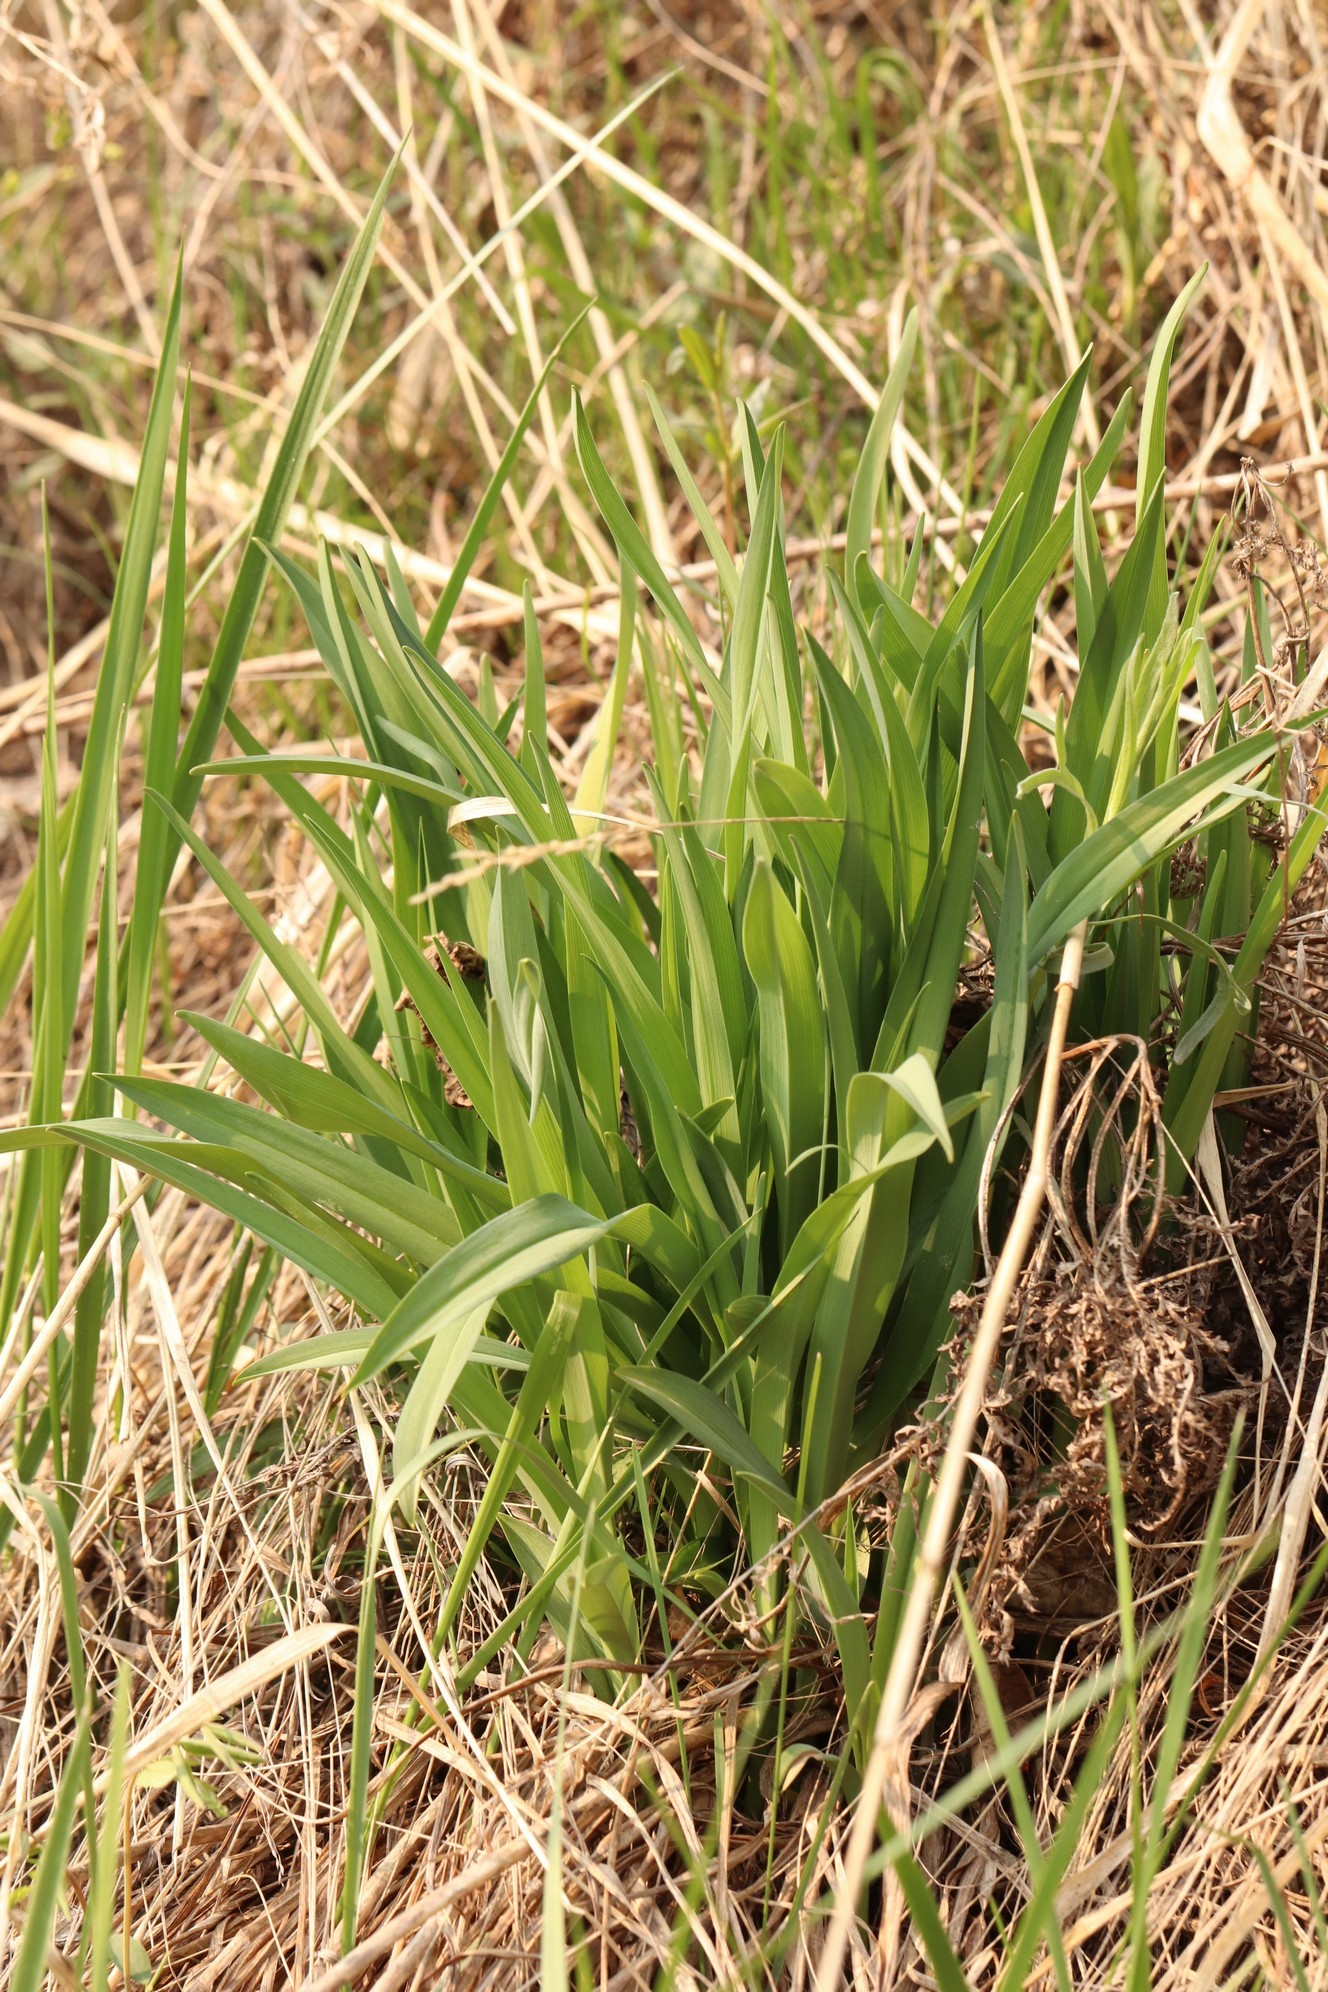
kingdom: Plantae
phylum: Tracheophyta
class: Liliopsida
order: Asparagales
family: Asphodelaceae
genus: Hemerocallis
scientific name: Hemerocallis minor
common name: Small daylily
